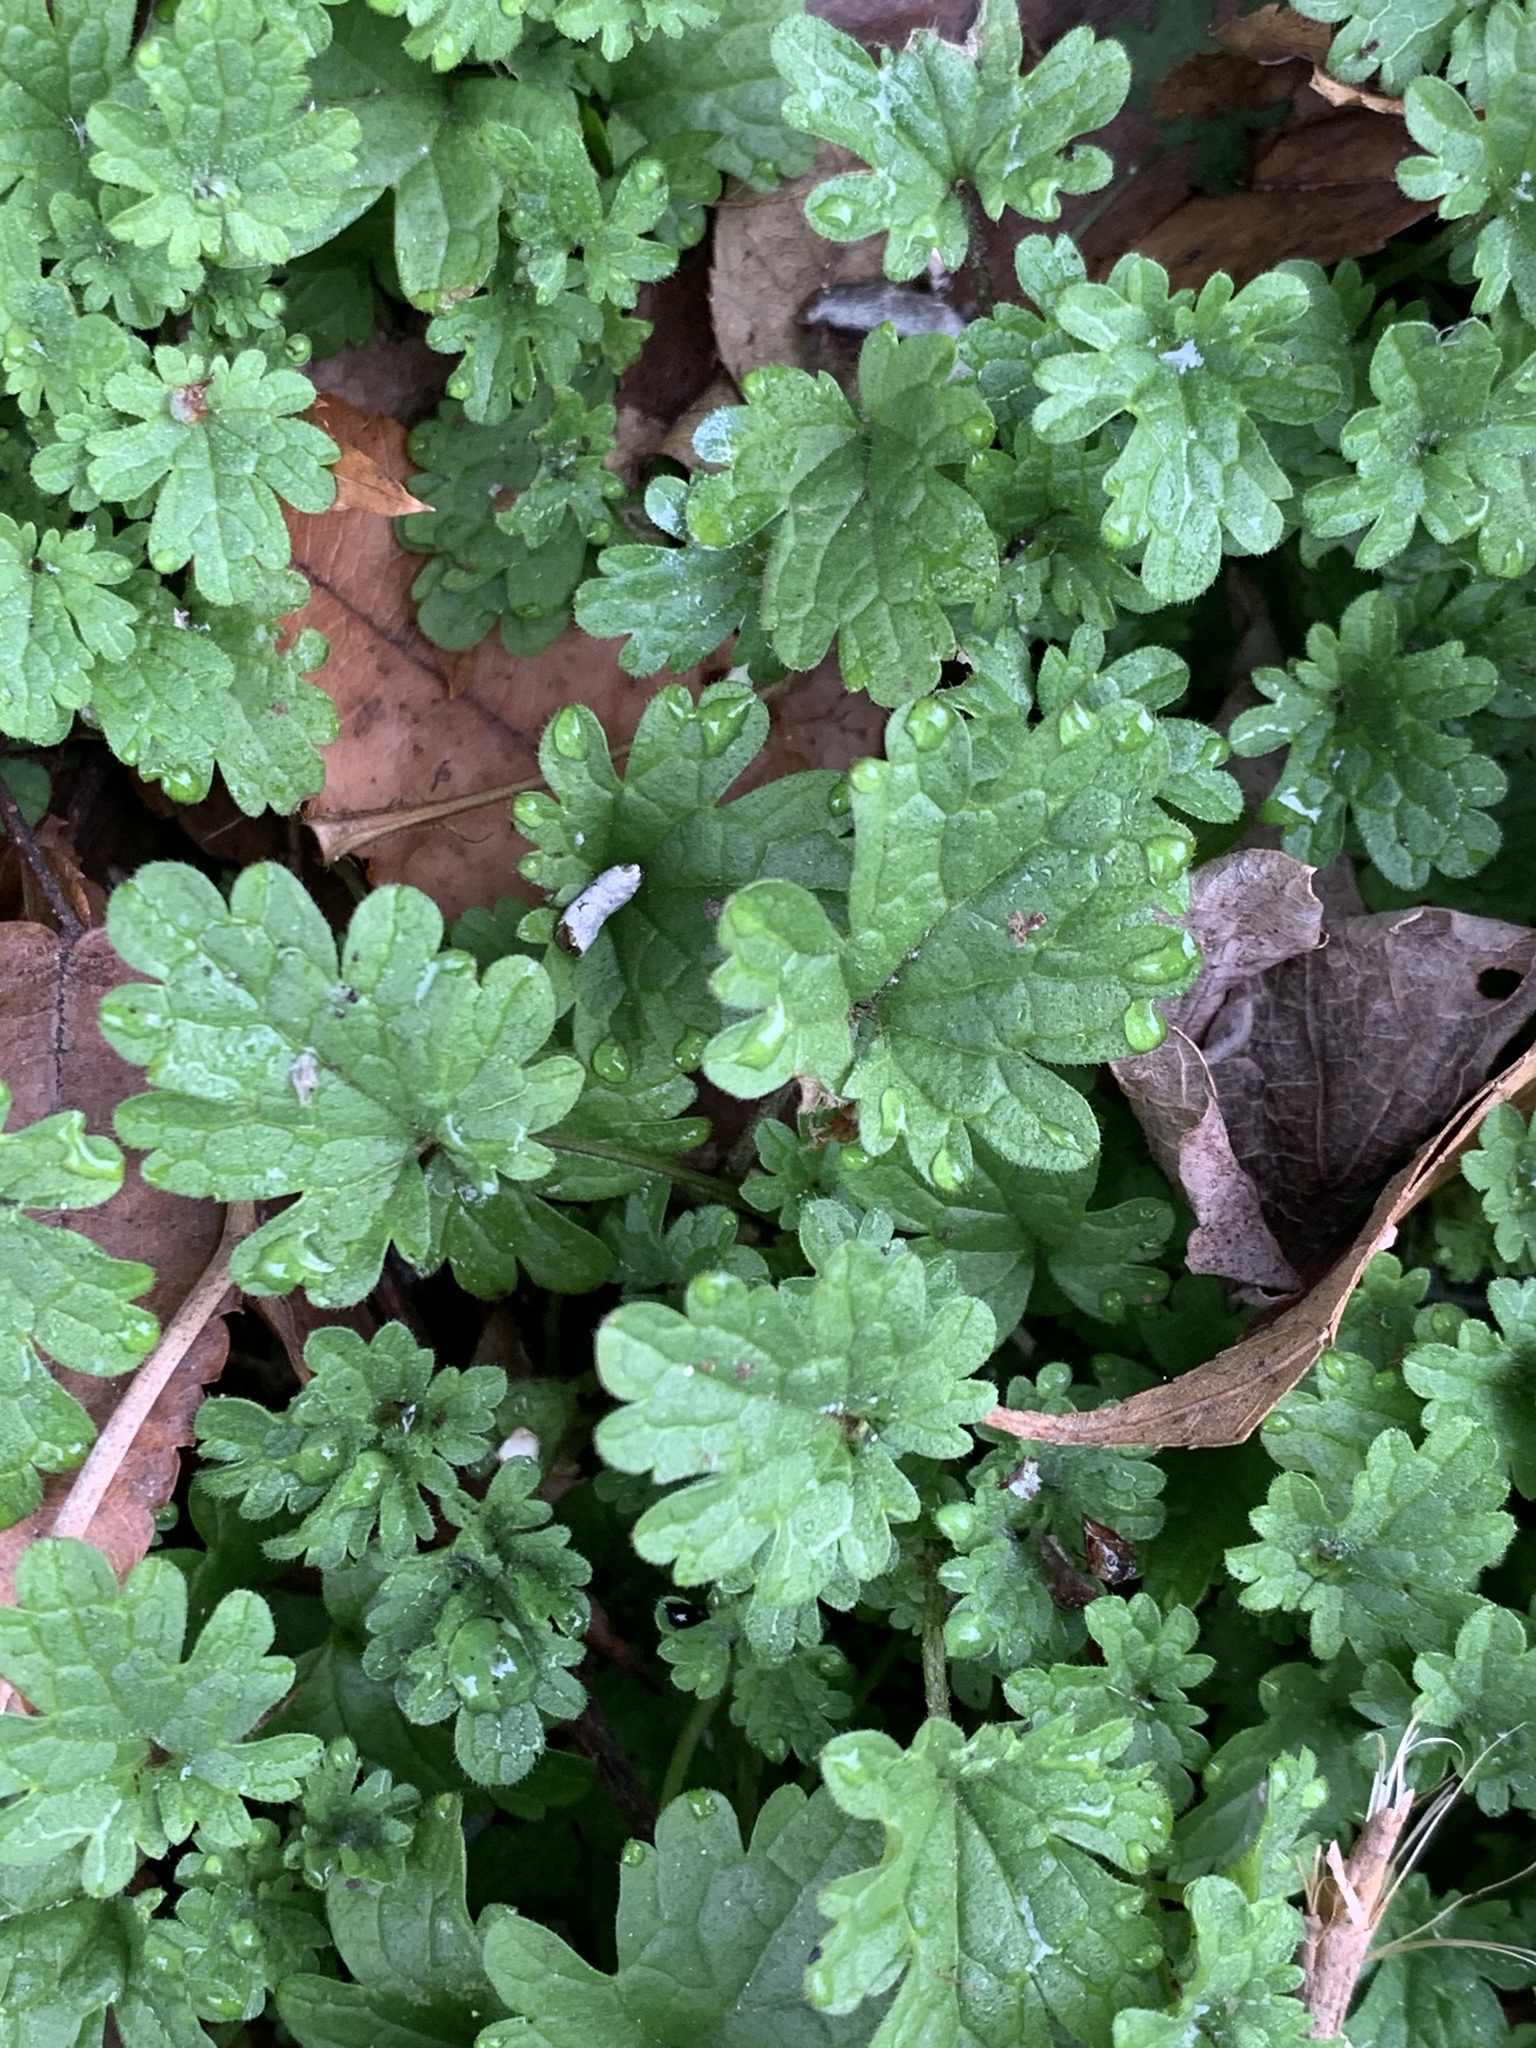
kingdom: Plantae
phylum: Tracheophyta
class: Magnoliopsida
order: Lamiales
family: Lamiaceae
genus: Lamium
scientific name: Lamium amplexicaule
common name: Henbit dead-nettle
